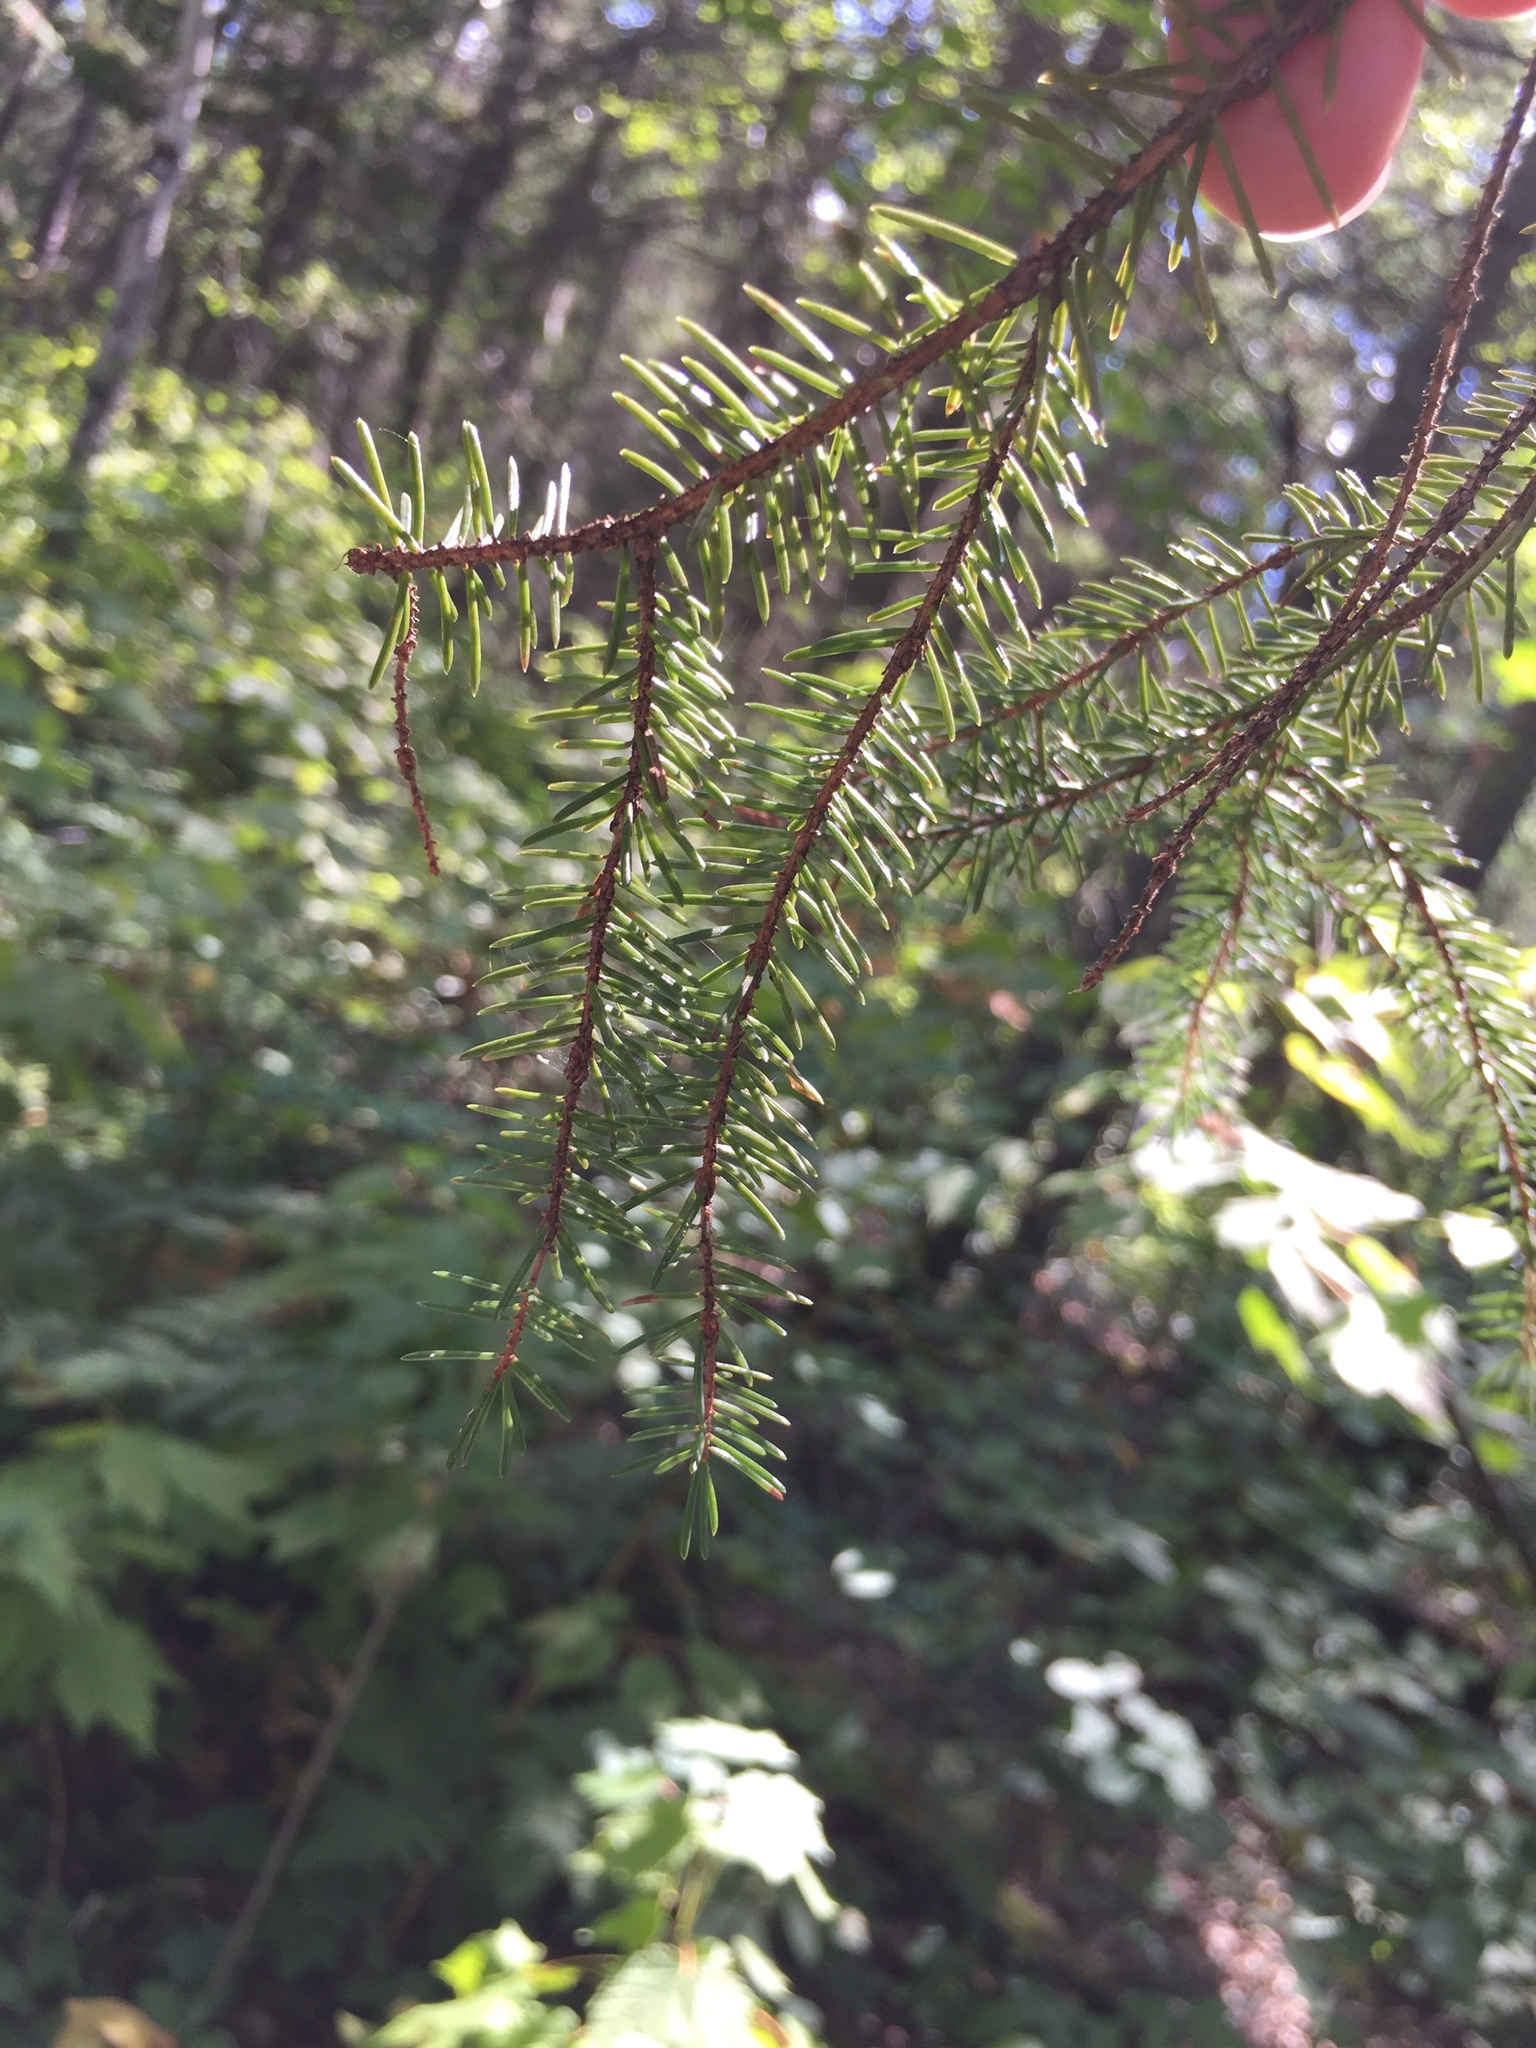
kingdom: Plantae
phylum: Tracheophyta
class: Pinopsida
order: Pinales
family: Pinaceae
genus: Picea
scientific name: Picea mariana
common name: Black spruce
